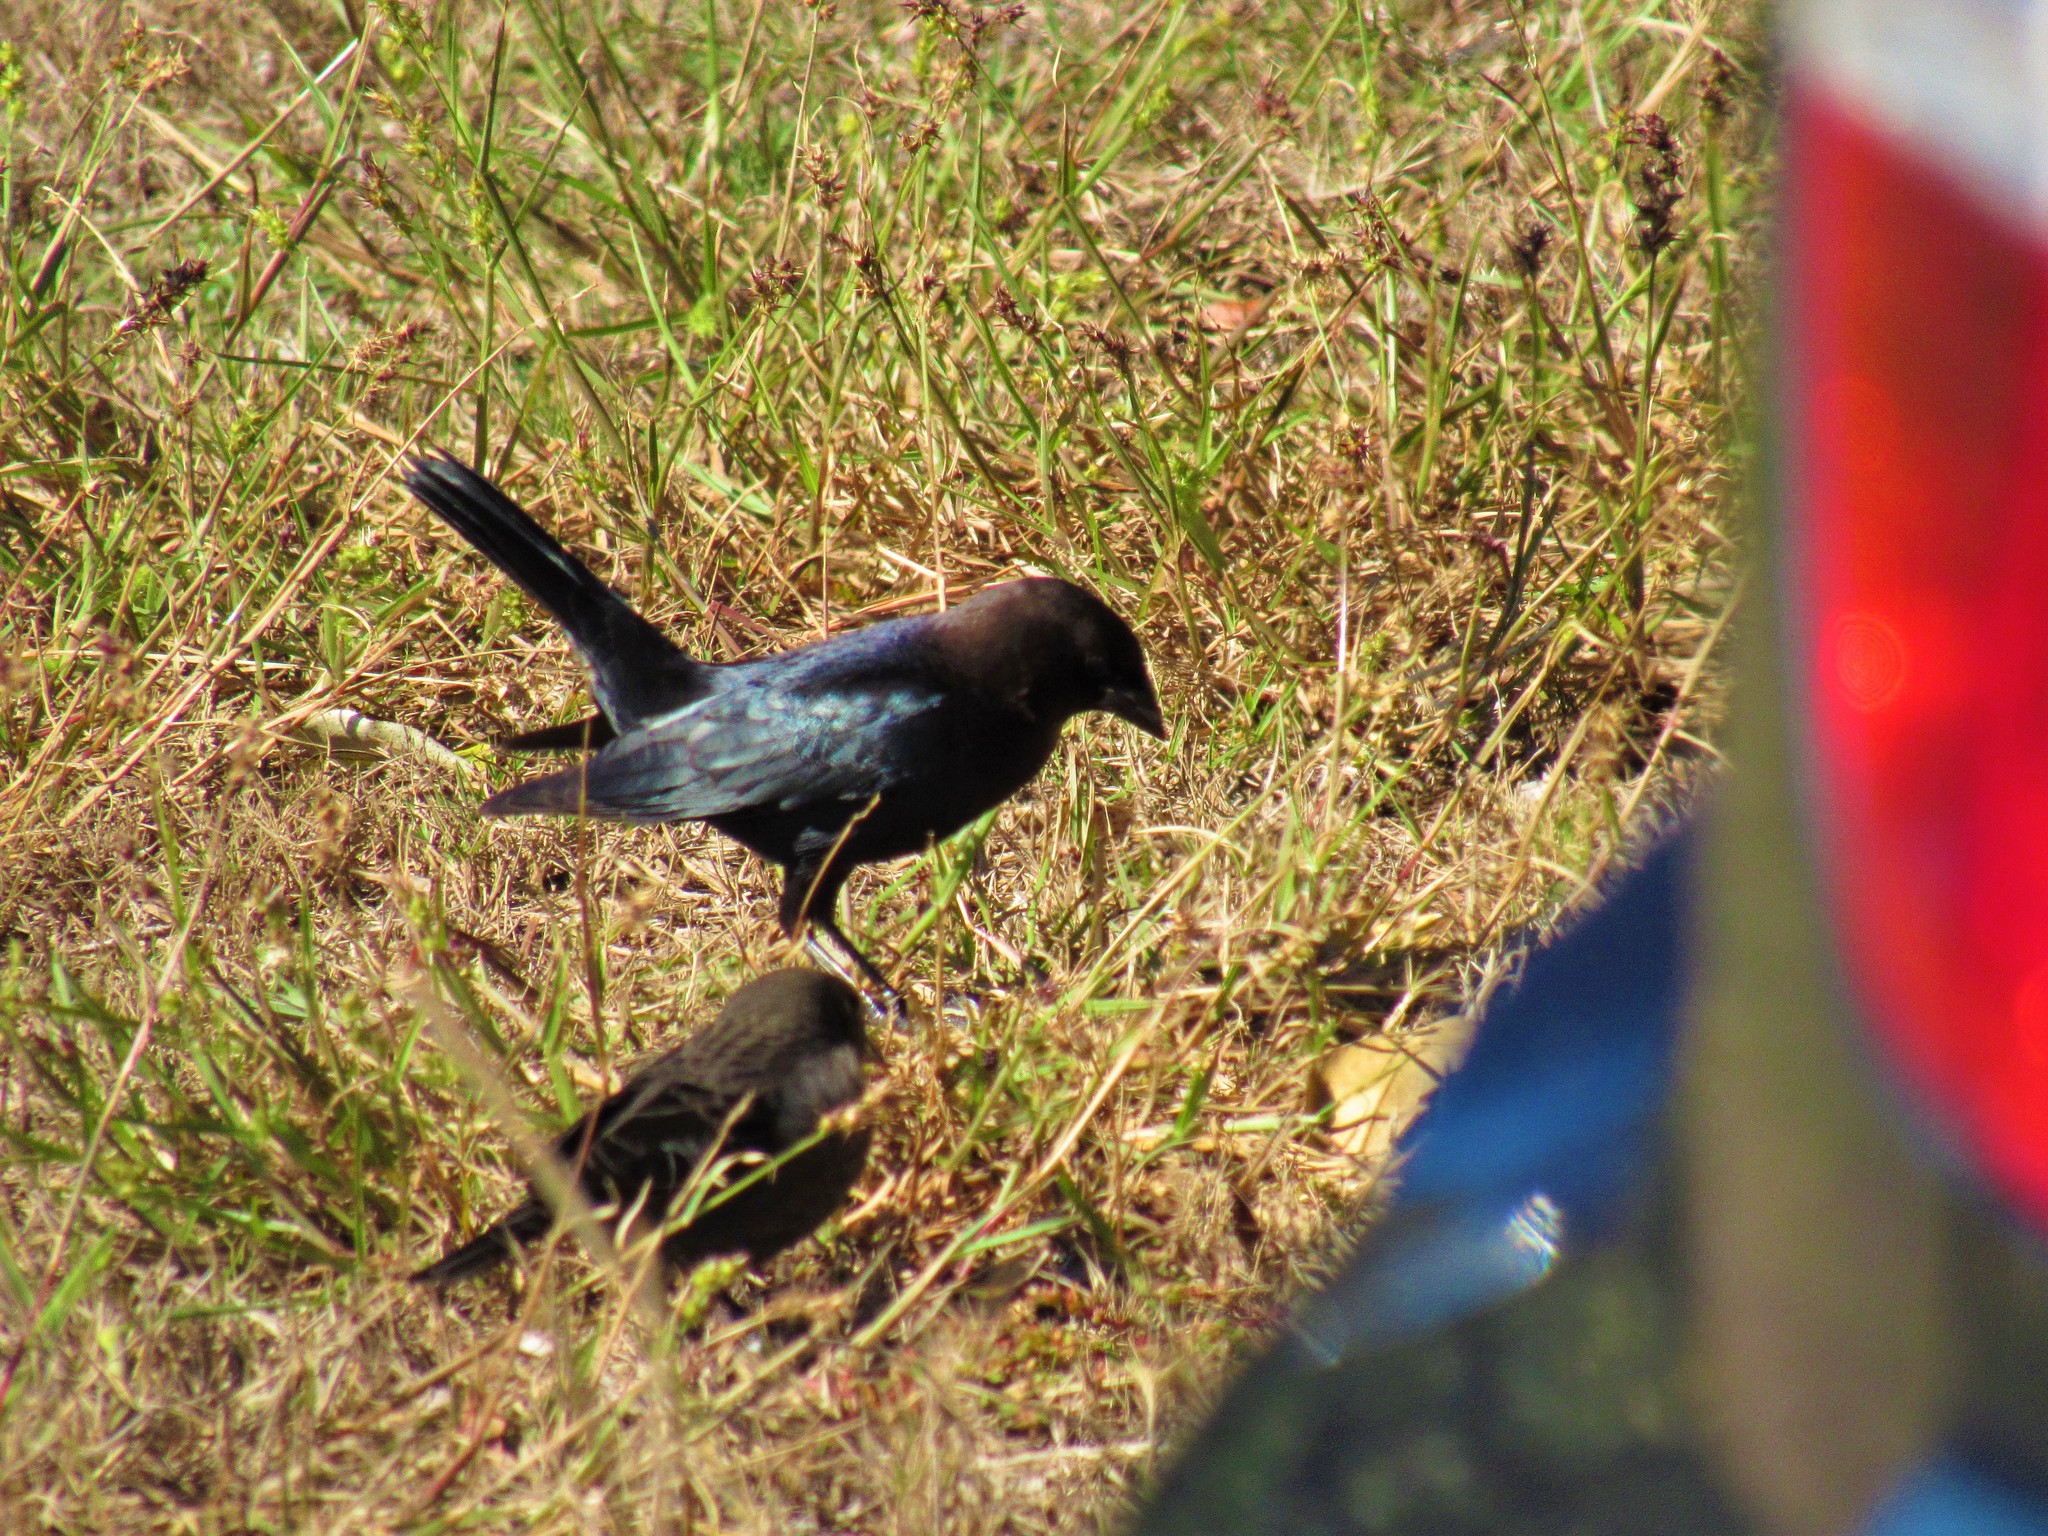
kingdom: Animalia
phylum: Chordata
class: Aves
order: Passeriformes
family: Icteridae
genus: Molothrus
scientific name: Molothrus ater
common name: Brown-headed cowbird
